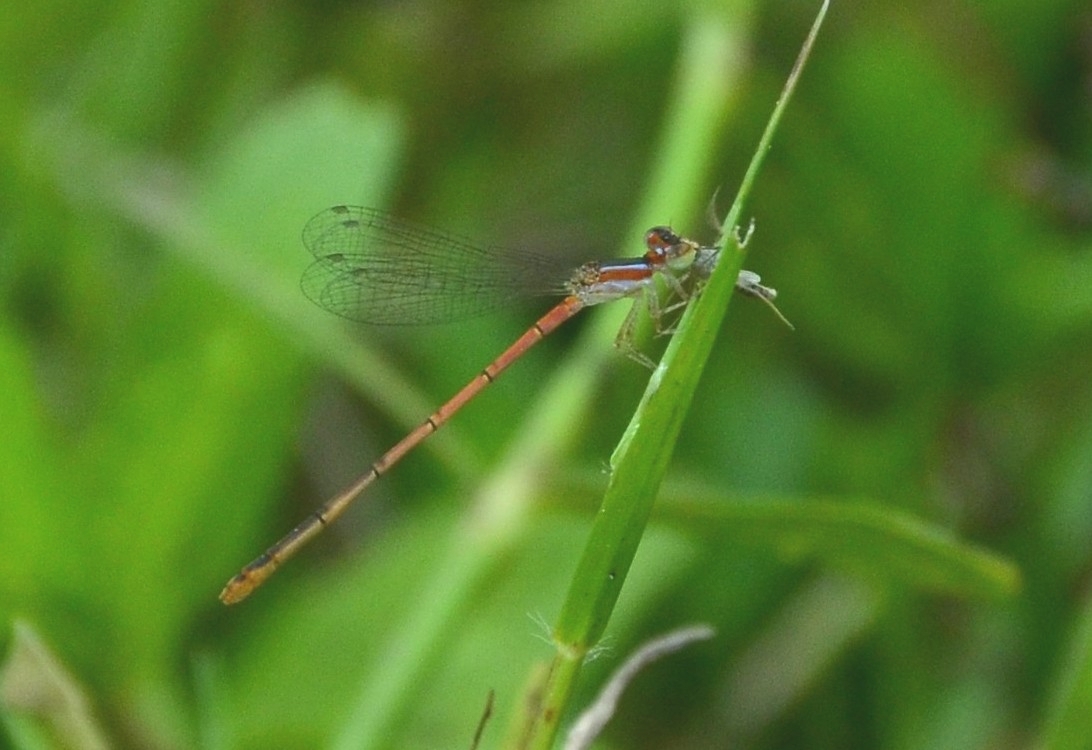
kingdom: Animalia
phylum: Arthropoda
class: Insecta
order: Odonata
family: Coenagrionidae
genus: Agriocnemis
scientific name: Agriocnemis pygmaea
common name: Pygmy wisp
